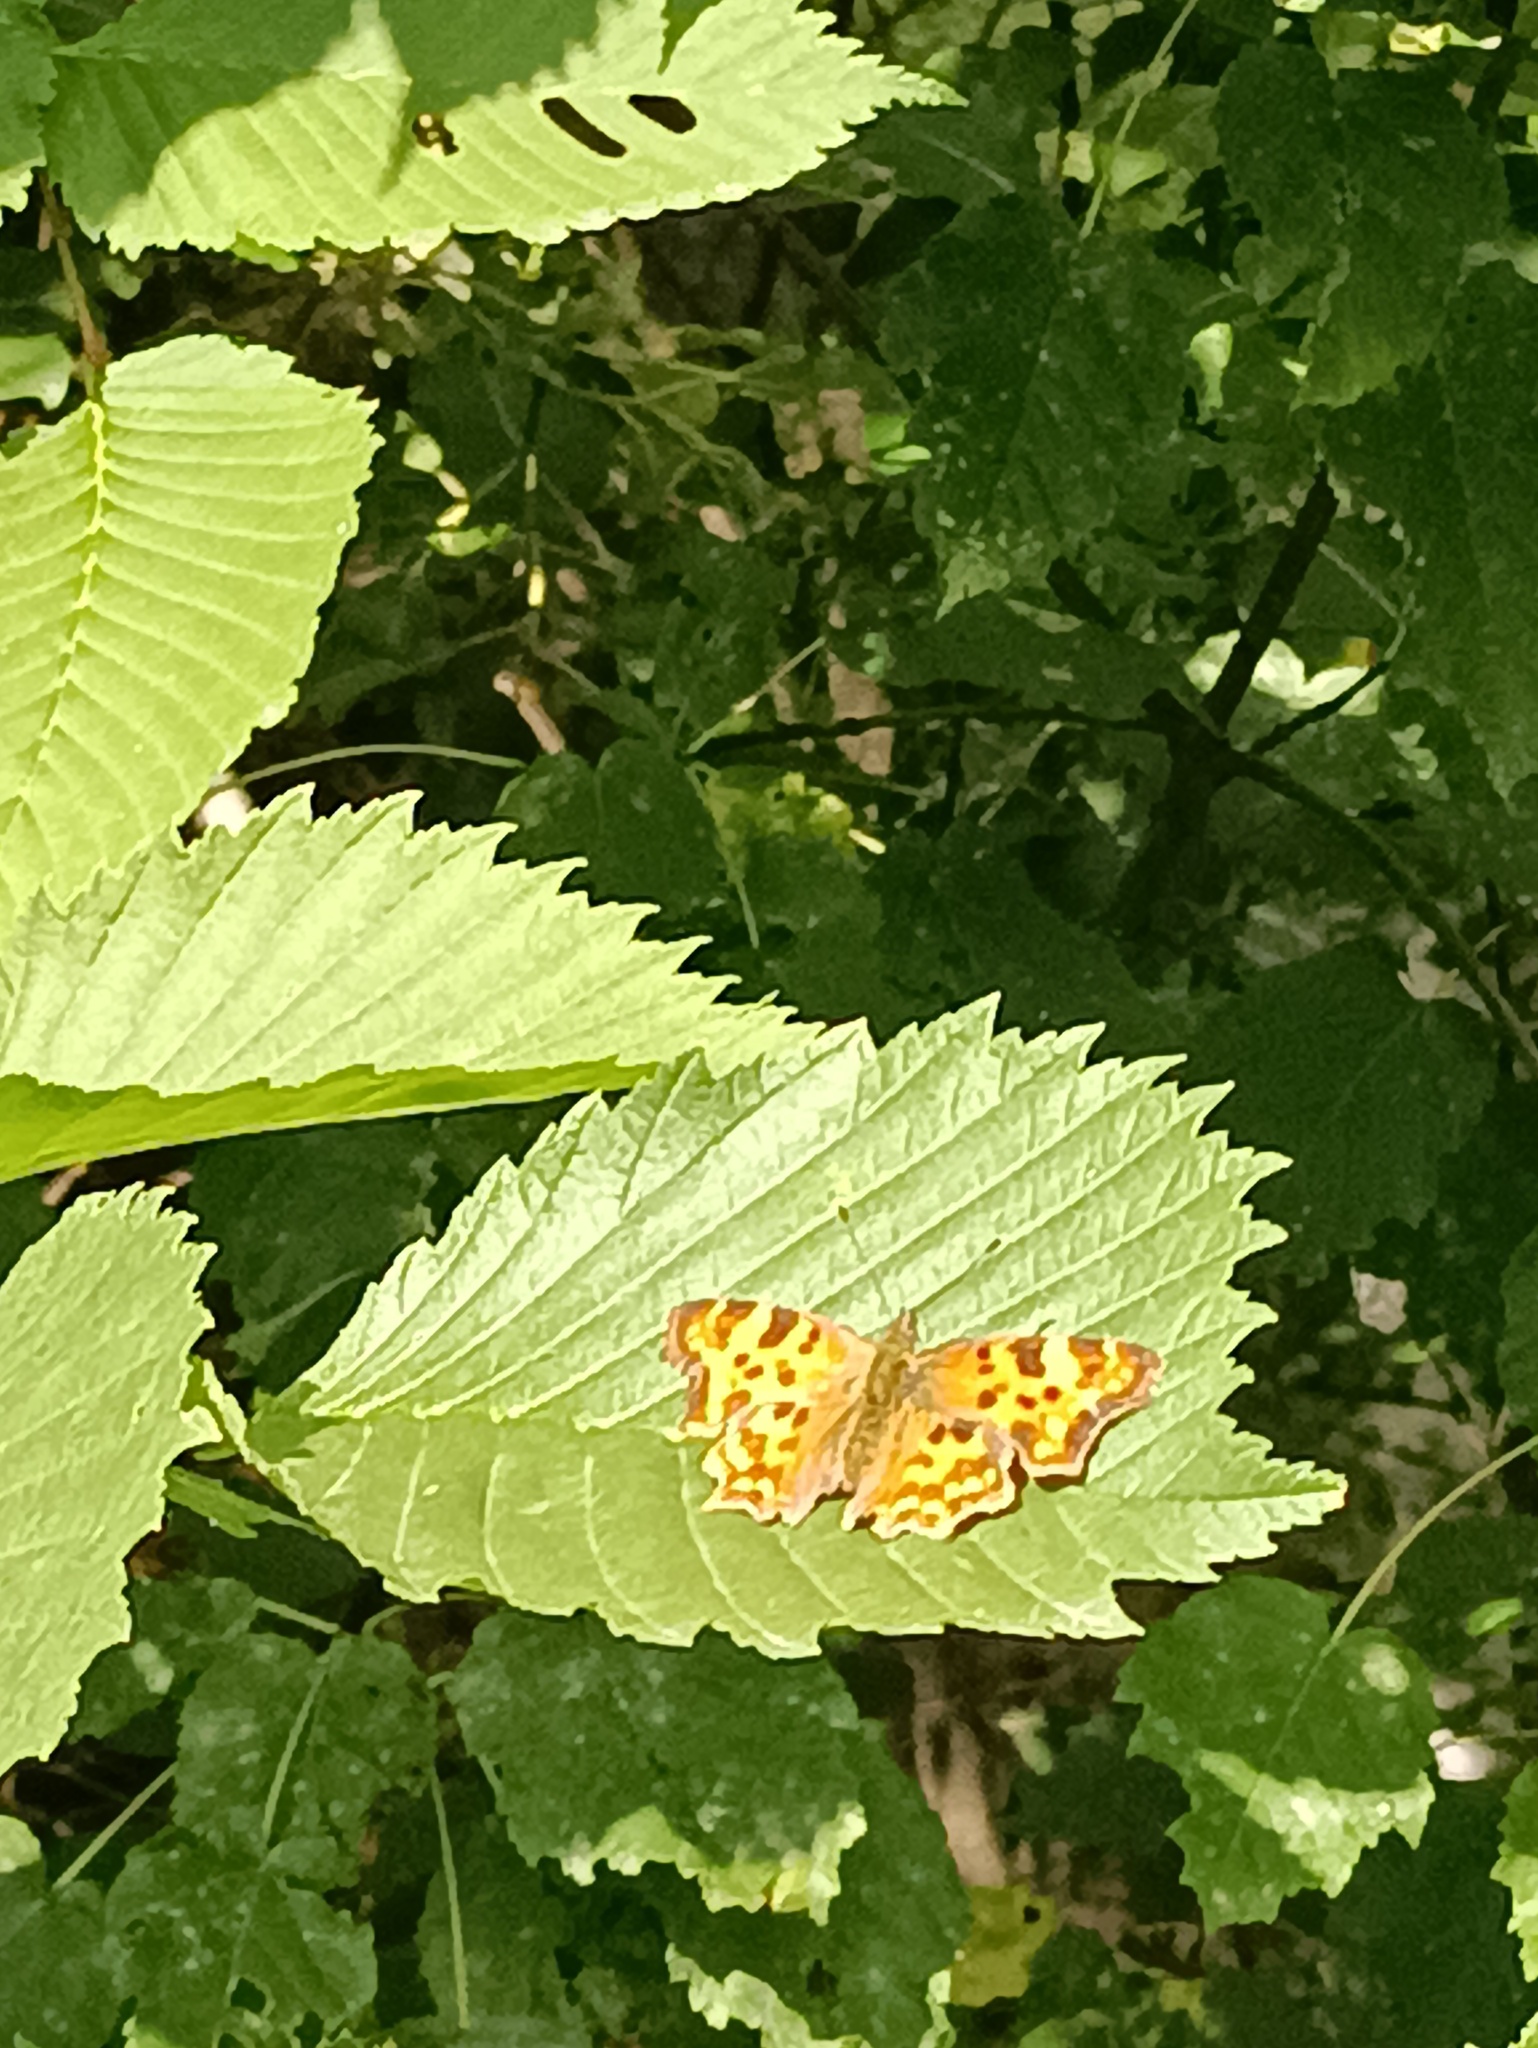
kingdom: Animalia
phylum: Arthropoda
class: Insecta
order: Lepidoptera
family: Nymphalidae
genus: Polygonia
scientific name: Polygonia c-album
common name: Comma
